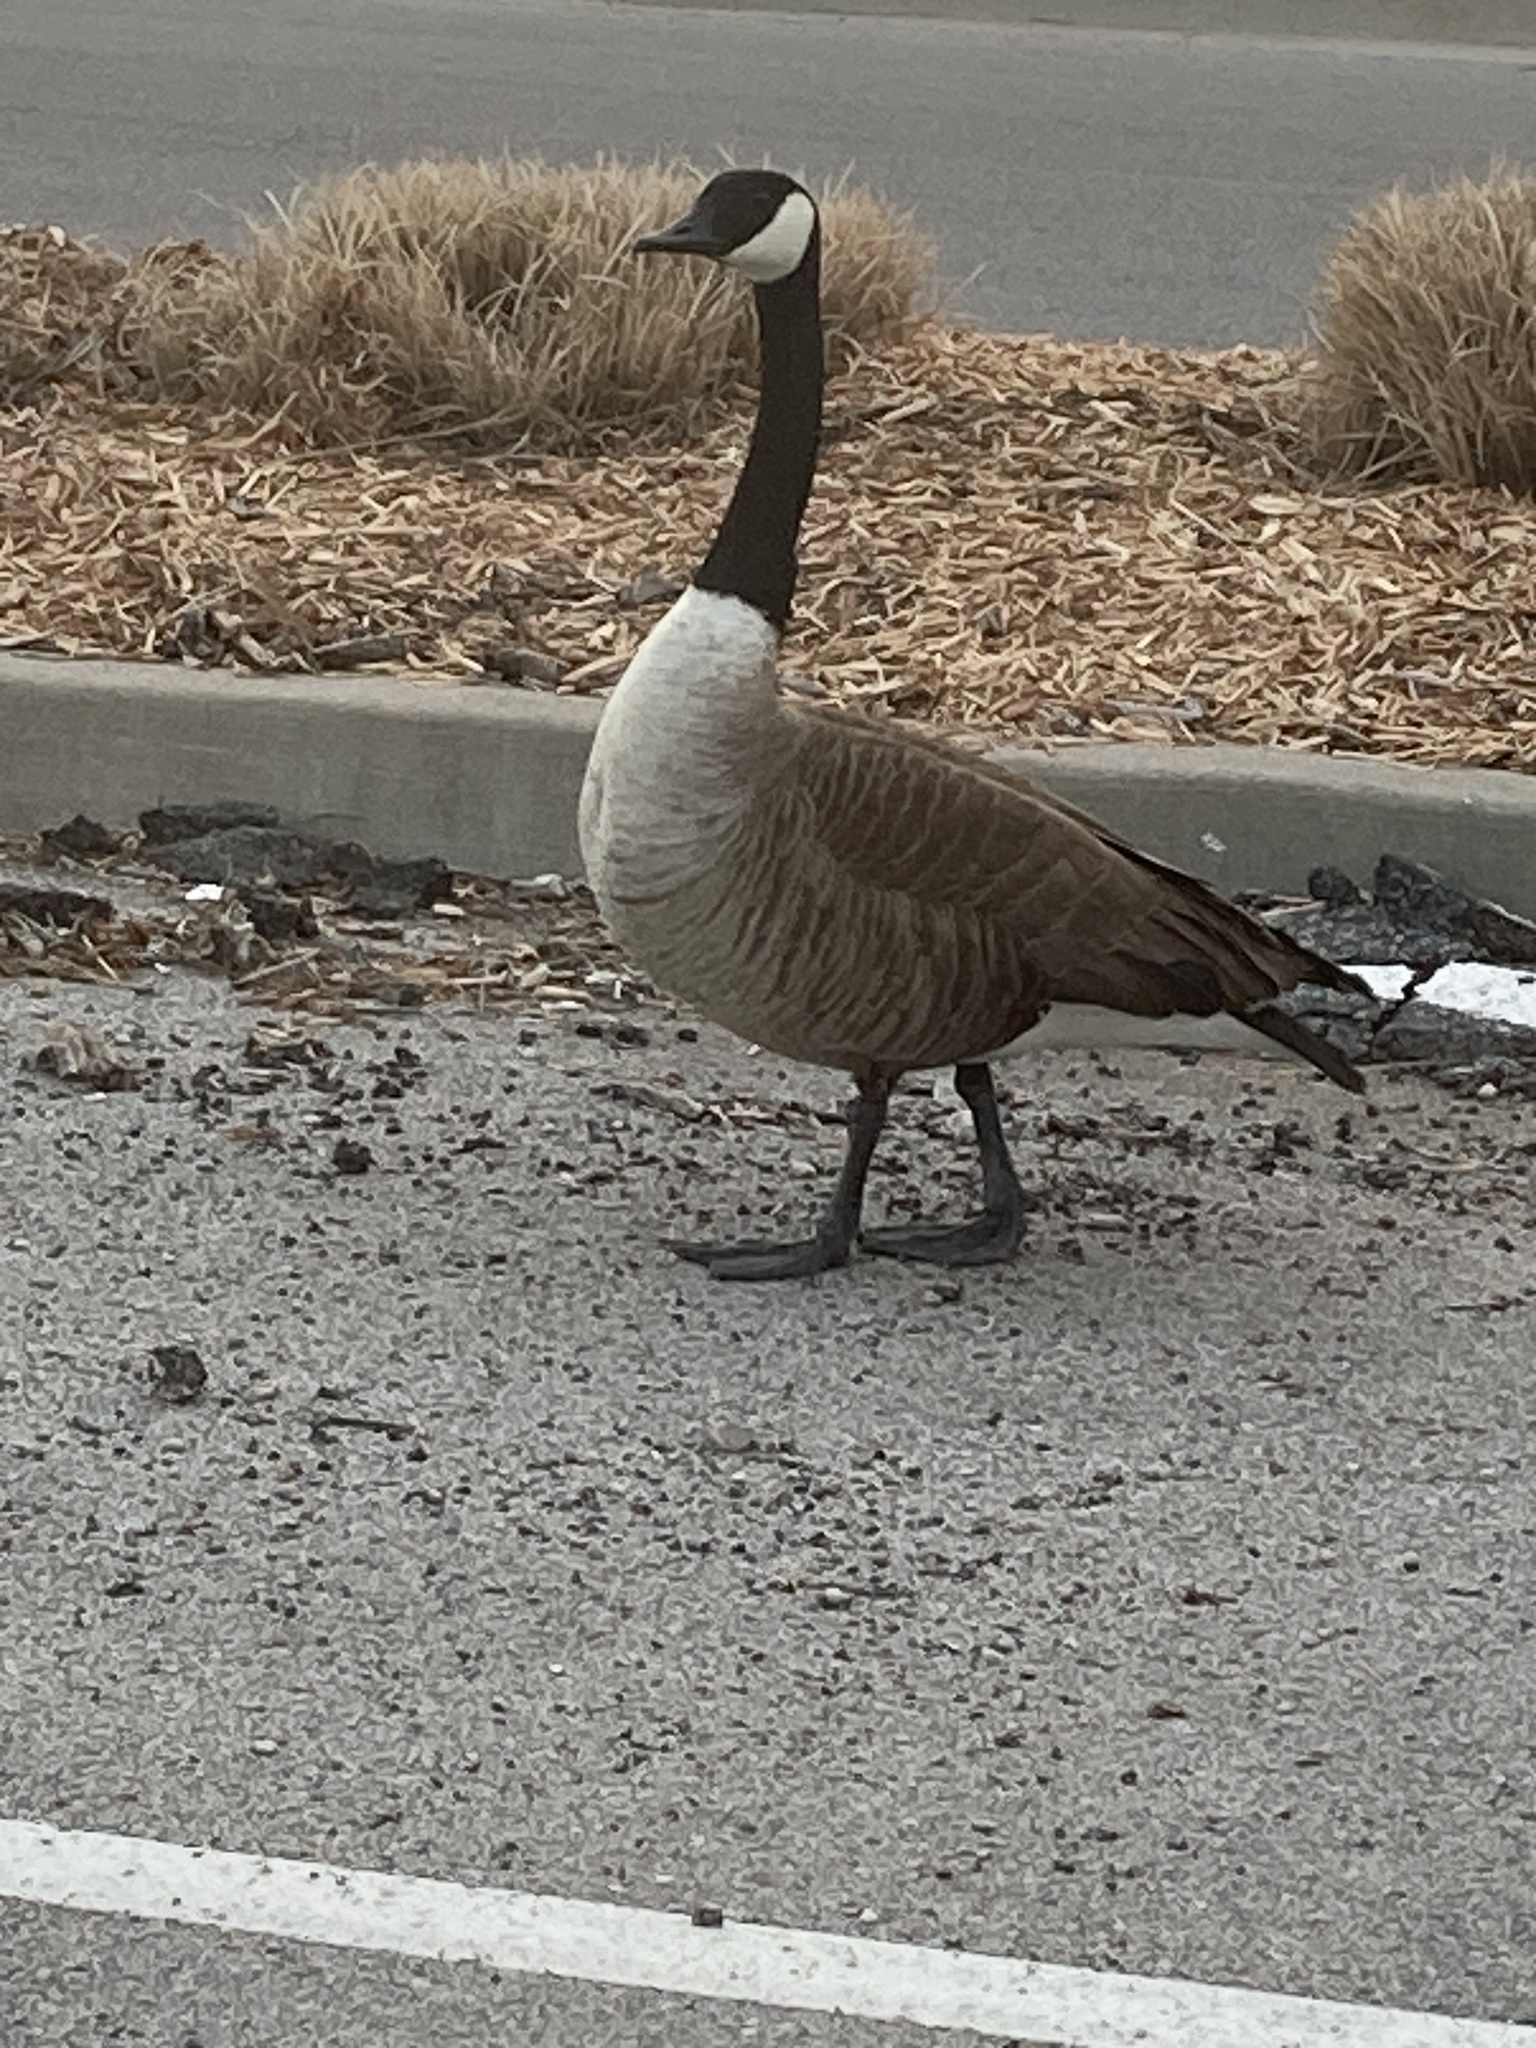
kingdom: Animalia
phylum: Chordata
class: Aves
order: Anseriformes
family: Anatidae
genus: Branta
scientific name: Branta canadensis
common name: Canada goose
